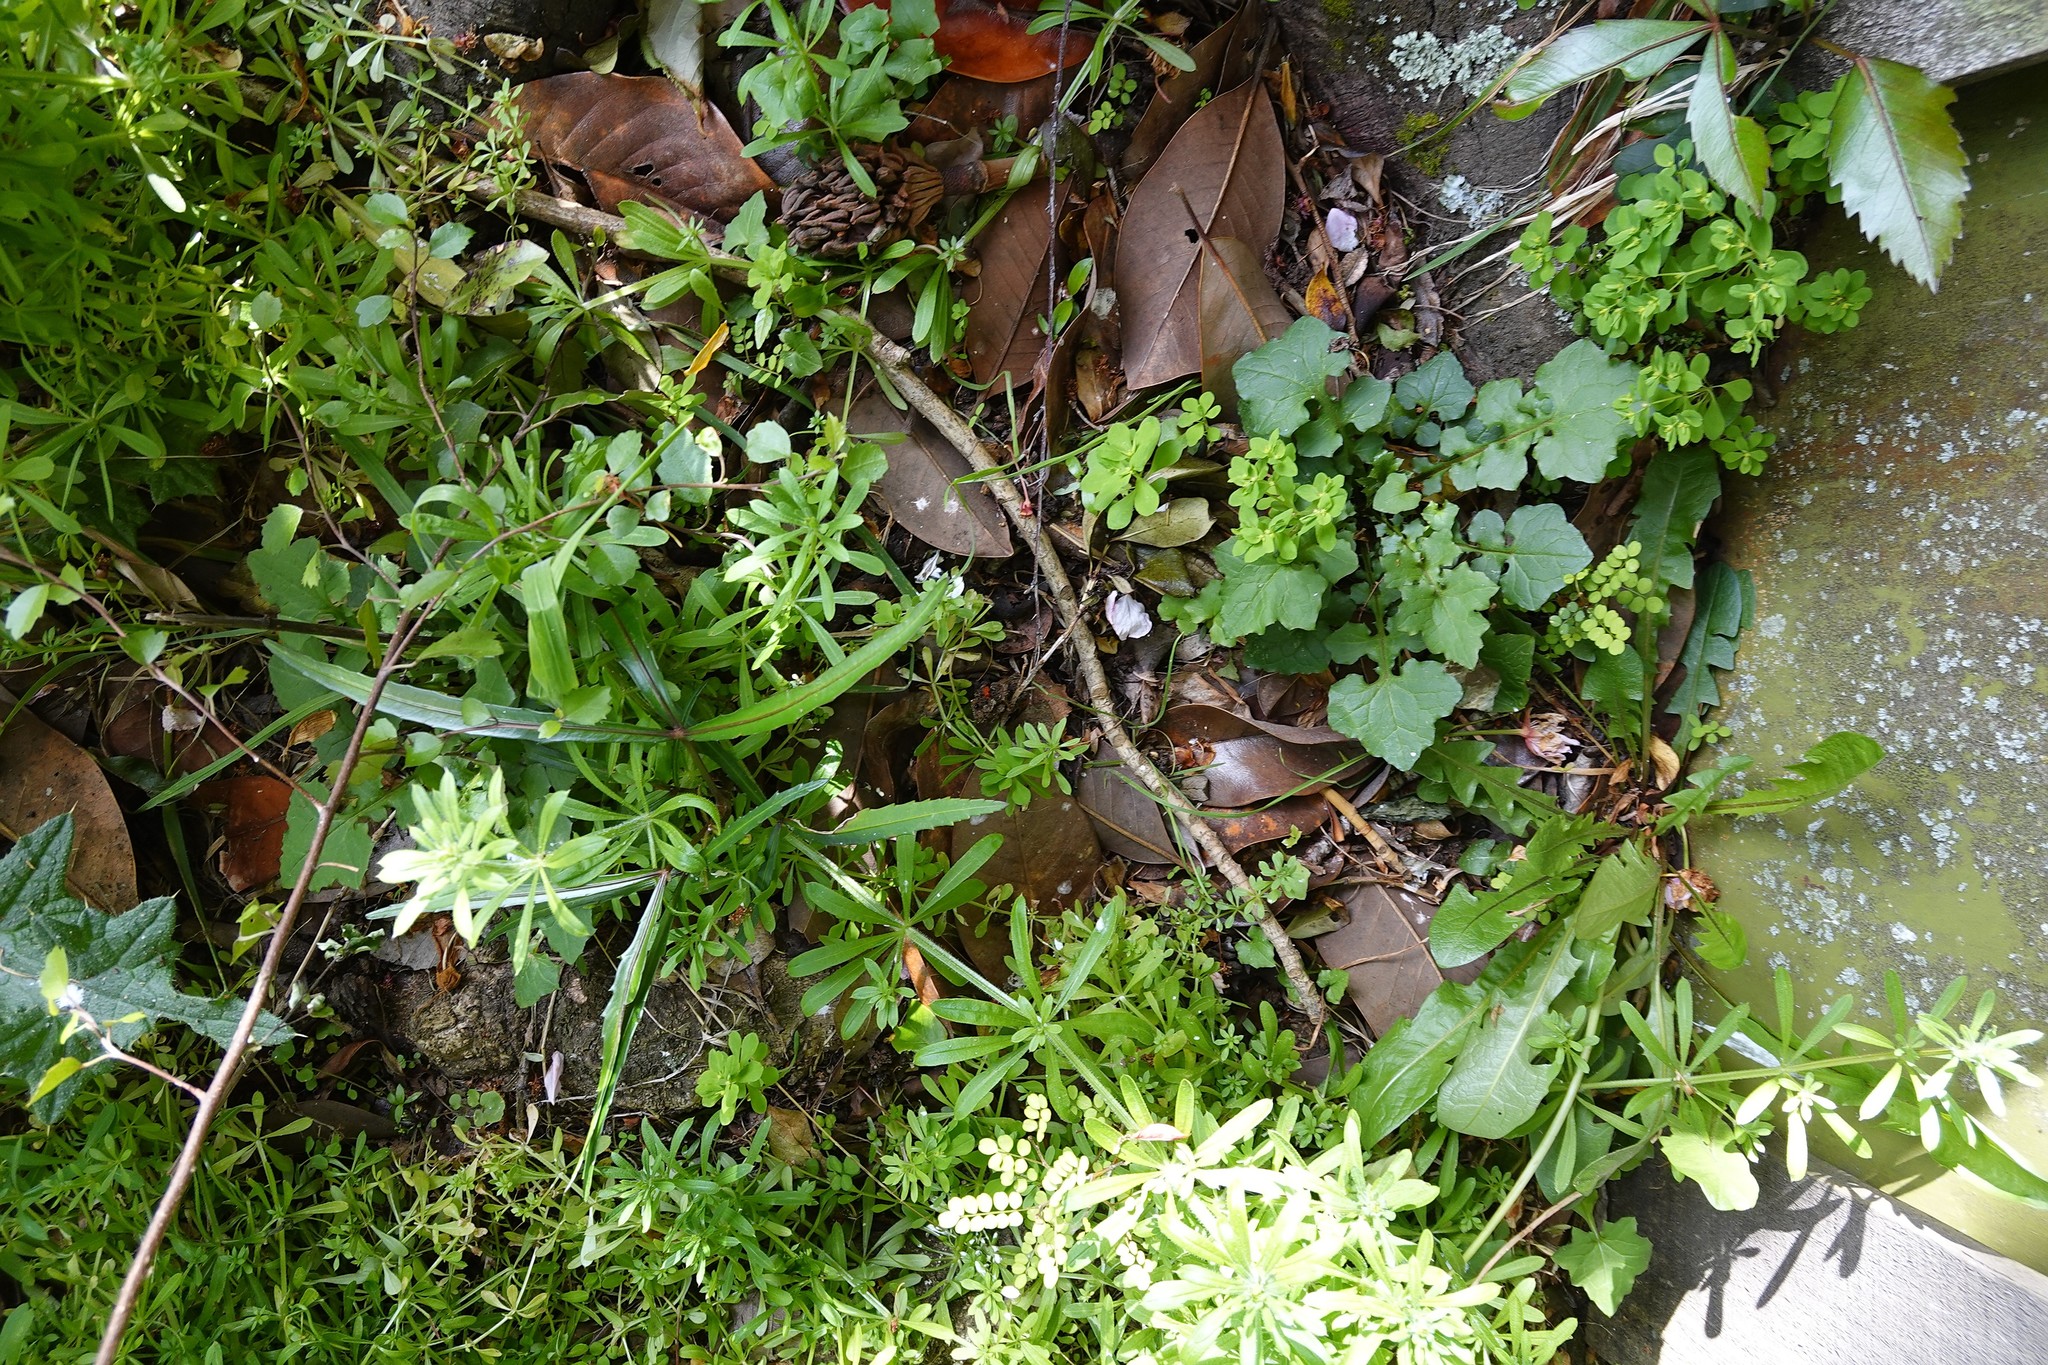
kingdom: Plantae
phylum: Tracheophyta
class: Magnoliopsida
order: Asterales
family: Asteraceae
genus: Mycelis
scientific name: Mycelis muralis
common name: Wall lettuce
